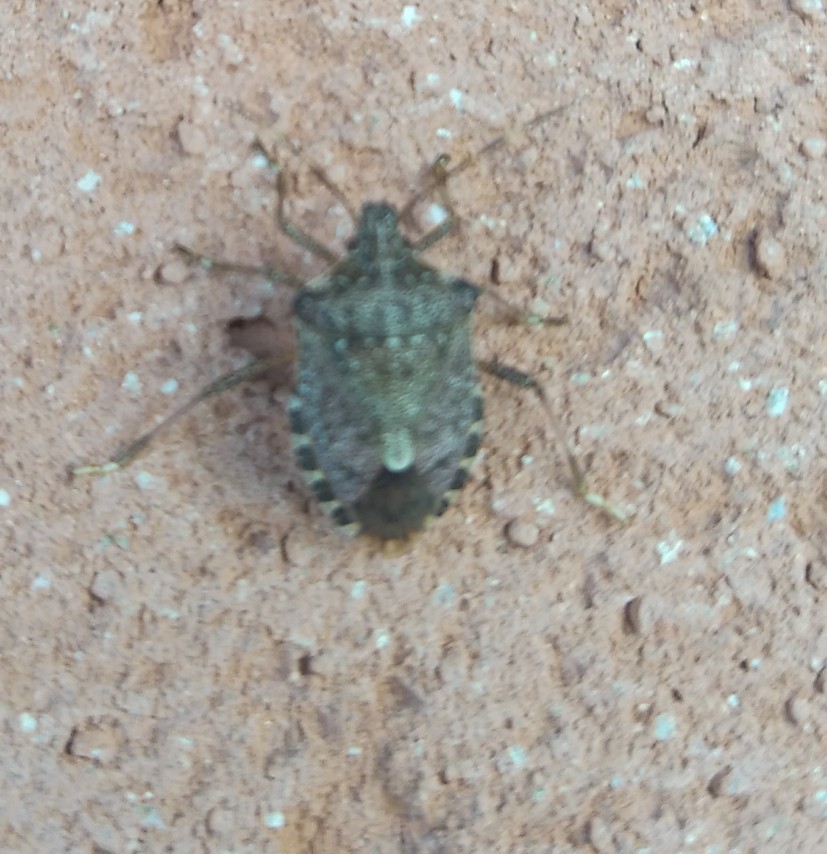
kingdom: Animalia
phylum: Arthropoda
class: Insecta
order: Hemiptera
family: Pentatomidae
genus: Halyomorpha
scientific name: Halyomorpha halys
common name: Brown marmorated stink bug
